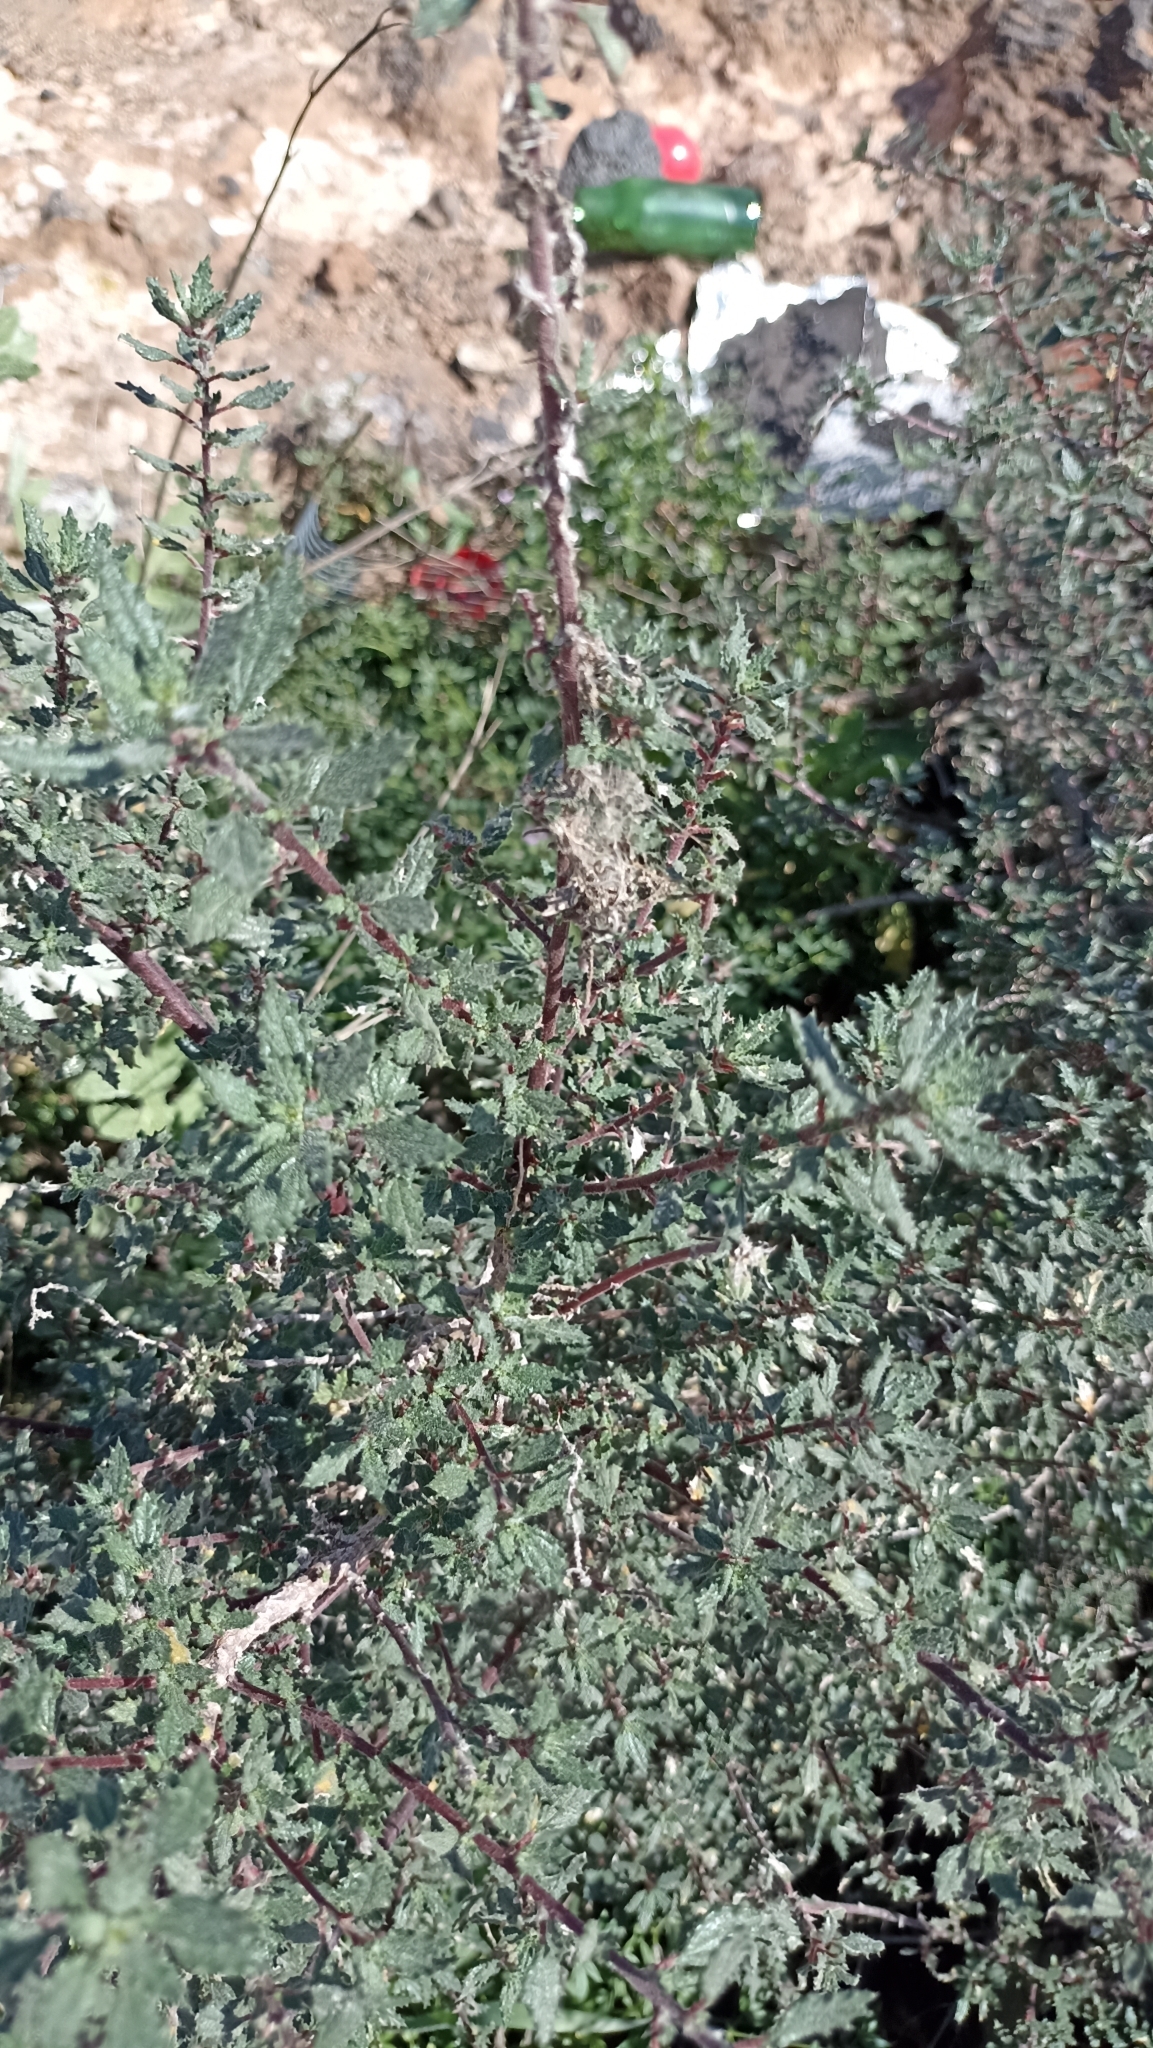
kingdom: Plantae
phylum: Tracheophyta
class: Magnoliopsida
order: Rosales
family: Urticaceae
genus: Forsskaolea
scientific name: Forsskaolea angustifolia
